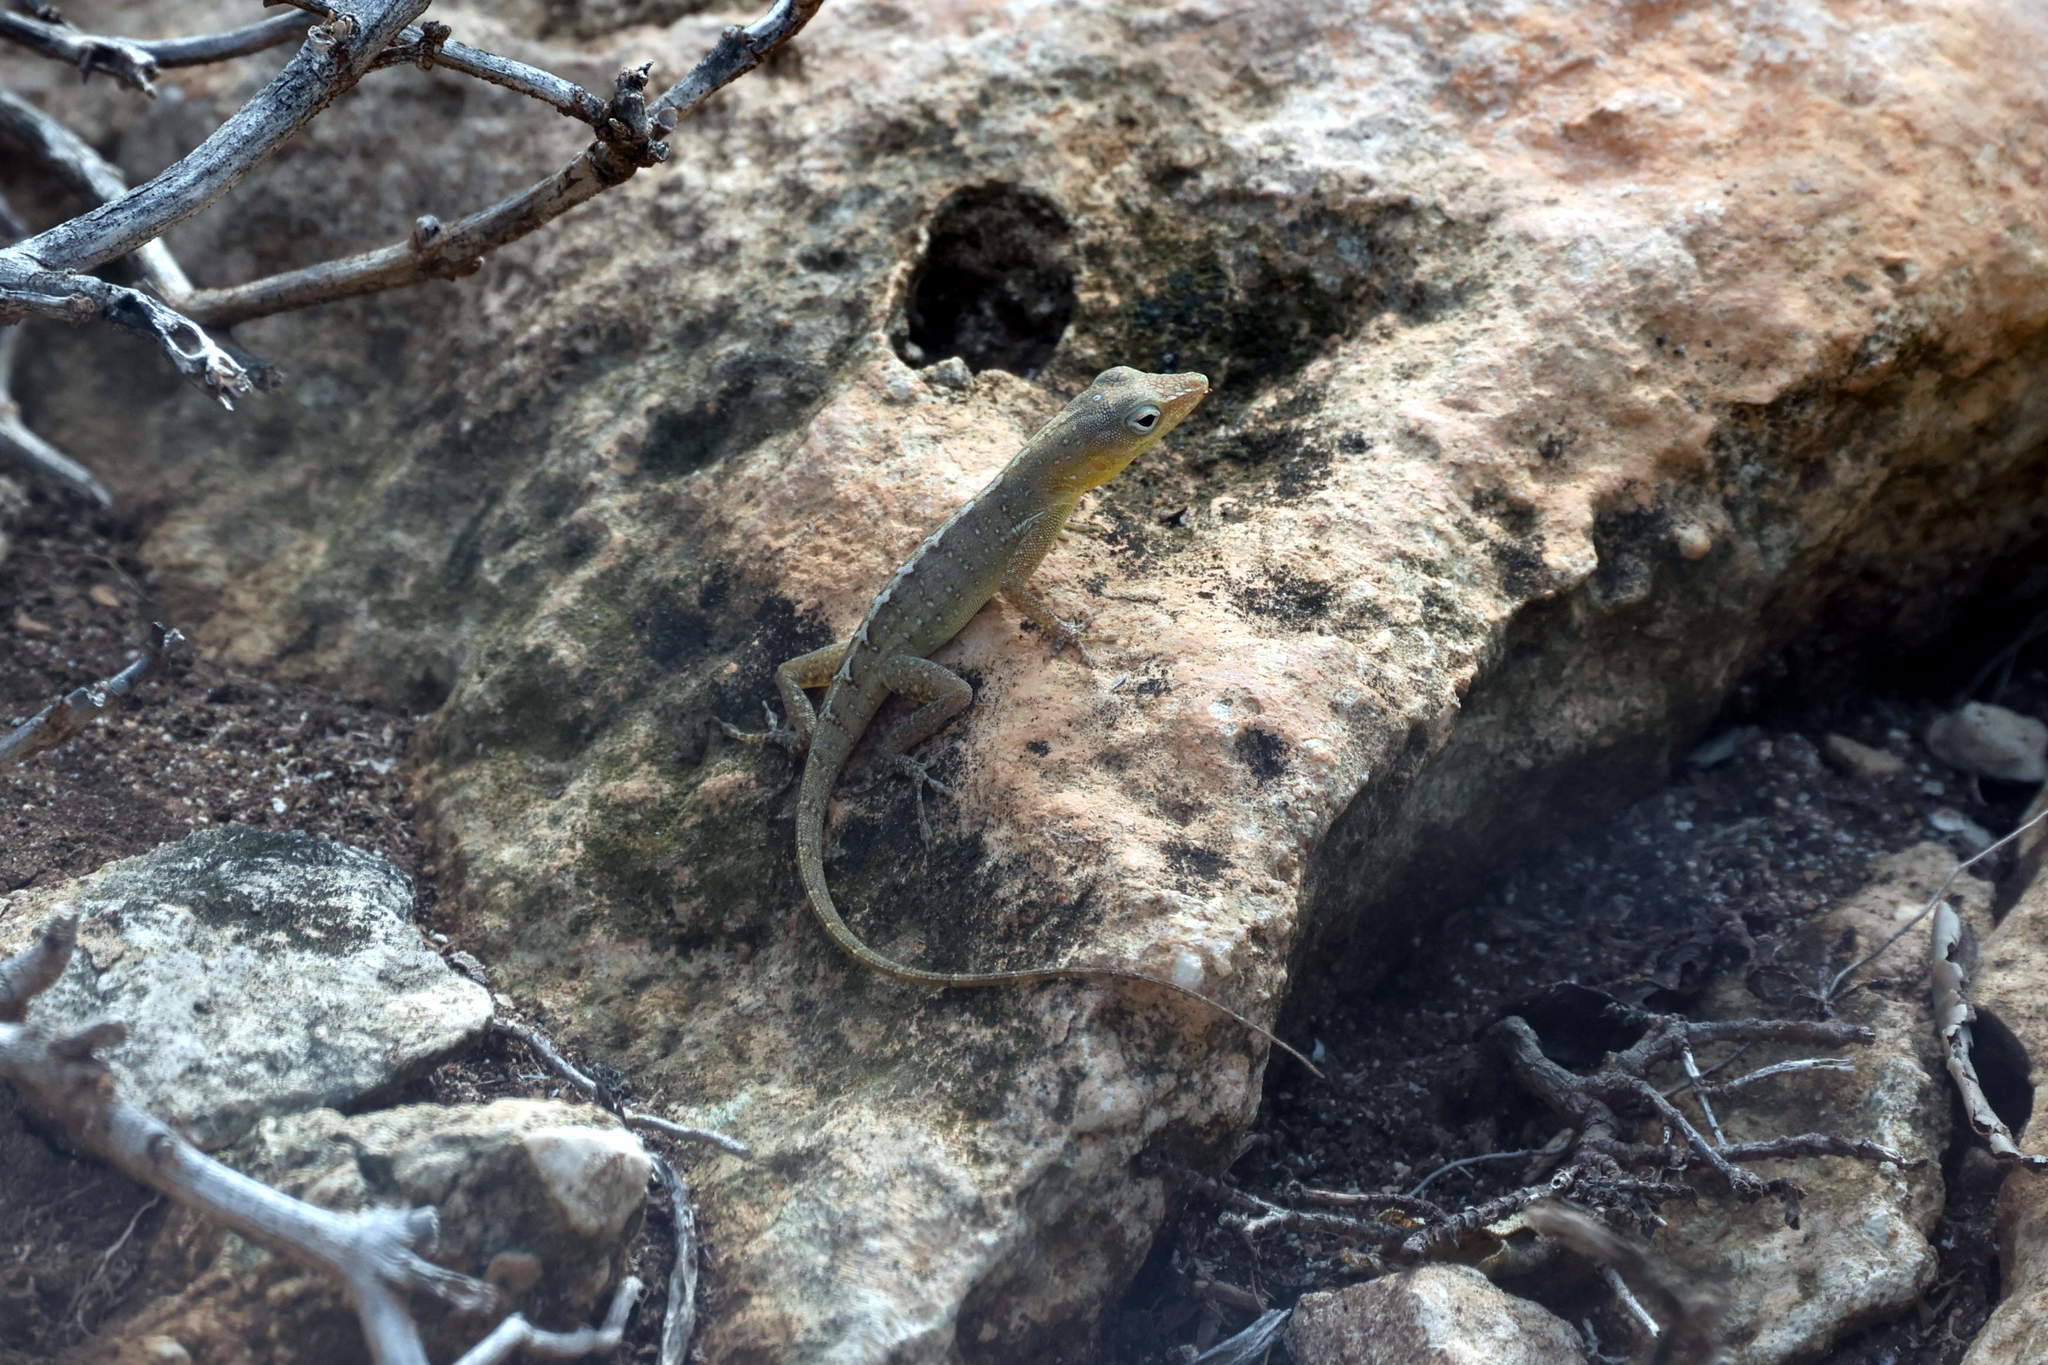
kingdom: Animalia
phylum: Chordata
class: Squamata
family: Dactyloidae
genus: Anolis
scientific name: Anolis chrysops
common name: Petite terre anole
